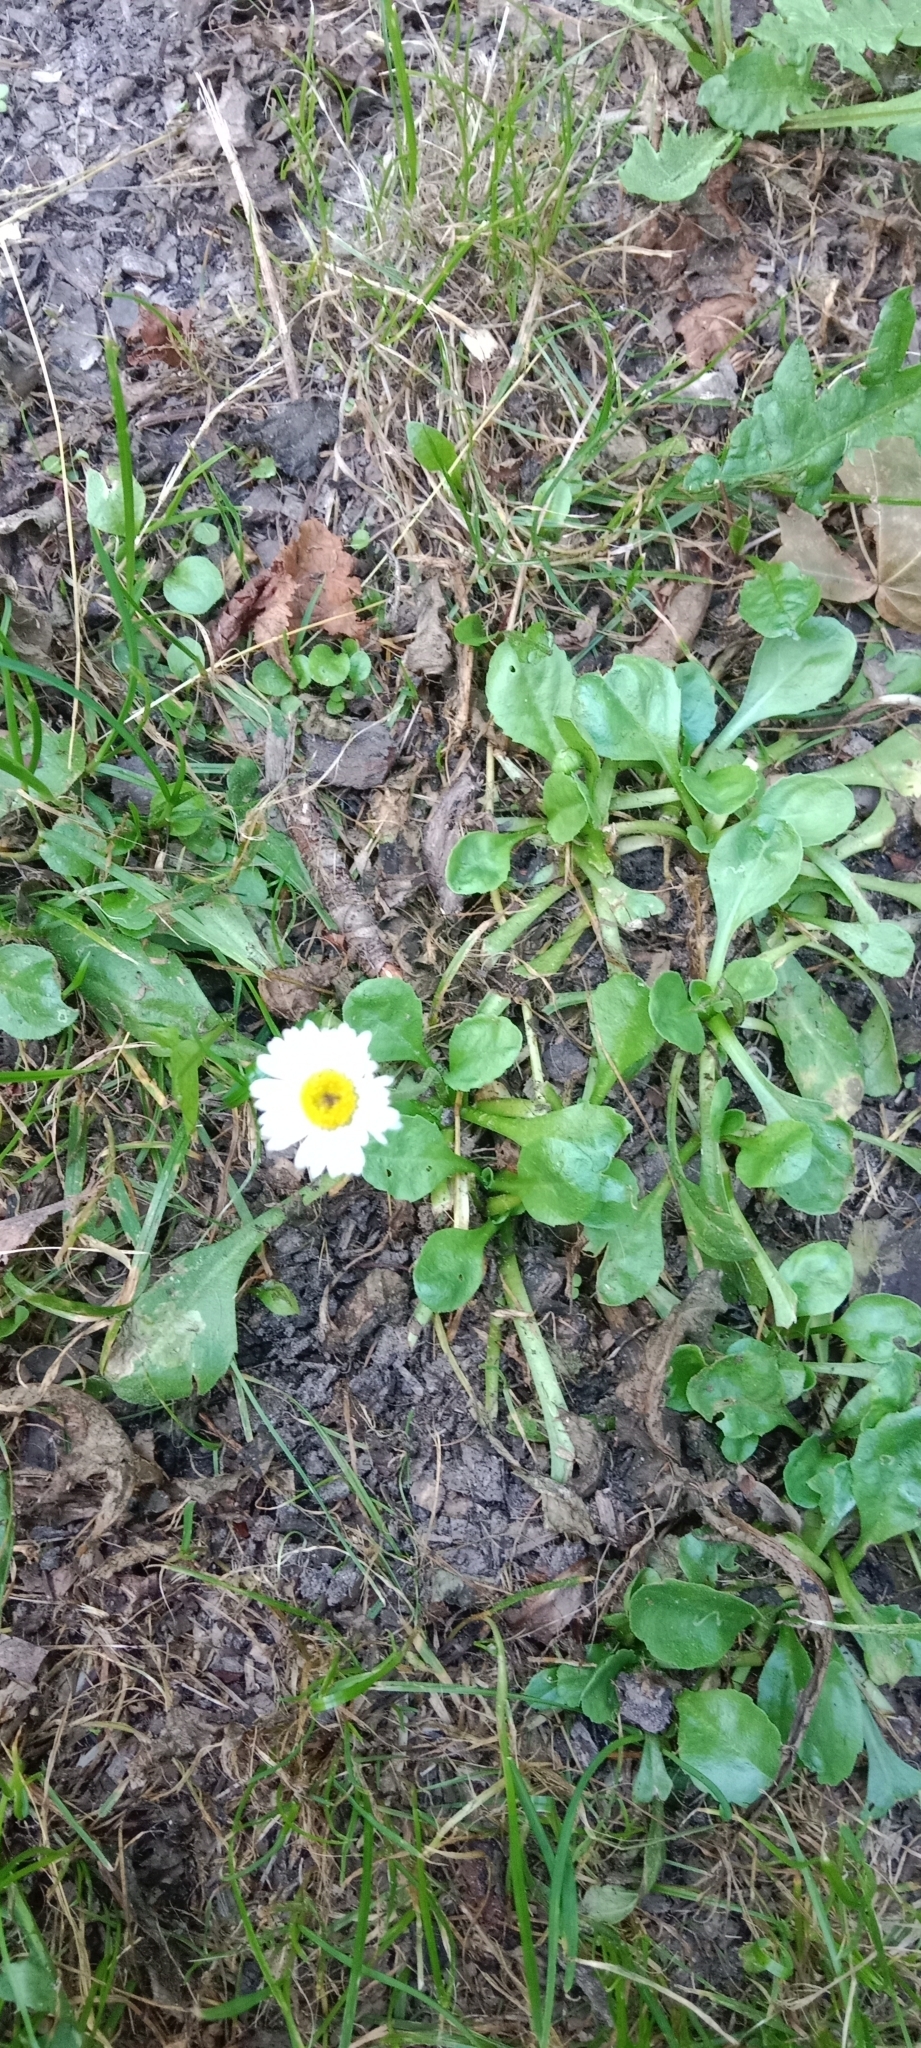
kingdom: Plantae
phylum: Tracheophyta
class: Magnoliopsida
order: Asterales
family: Asteraceae
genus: Bellis
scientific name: Bellis perennis
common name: Lawndaisy
